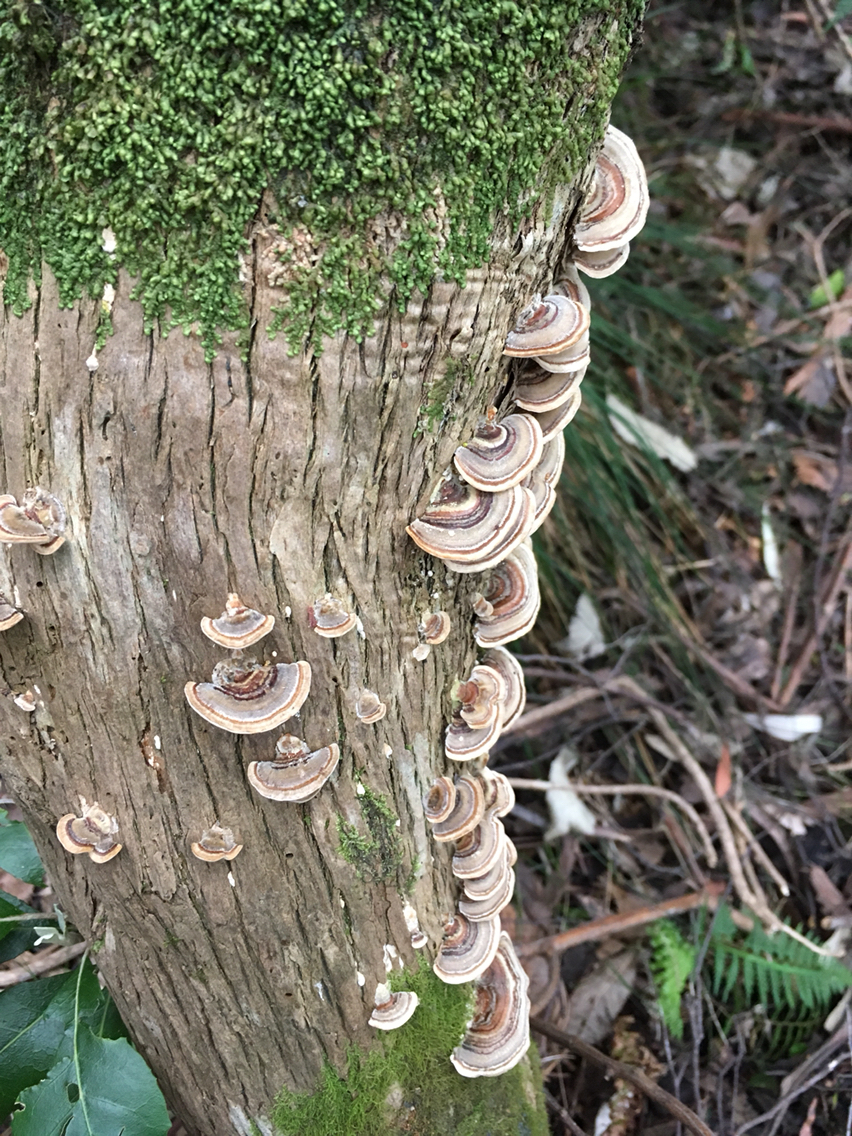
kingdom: Fungi
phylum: Basidiomycota
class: Agaricomycetes
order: Polyporales
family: Polyporaceae
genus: Trametes
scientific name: Trametes versicolor
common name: Turkeytail
